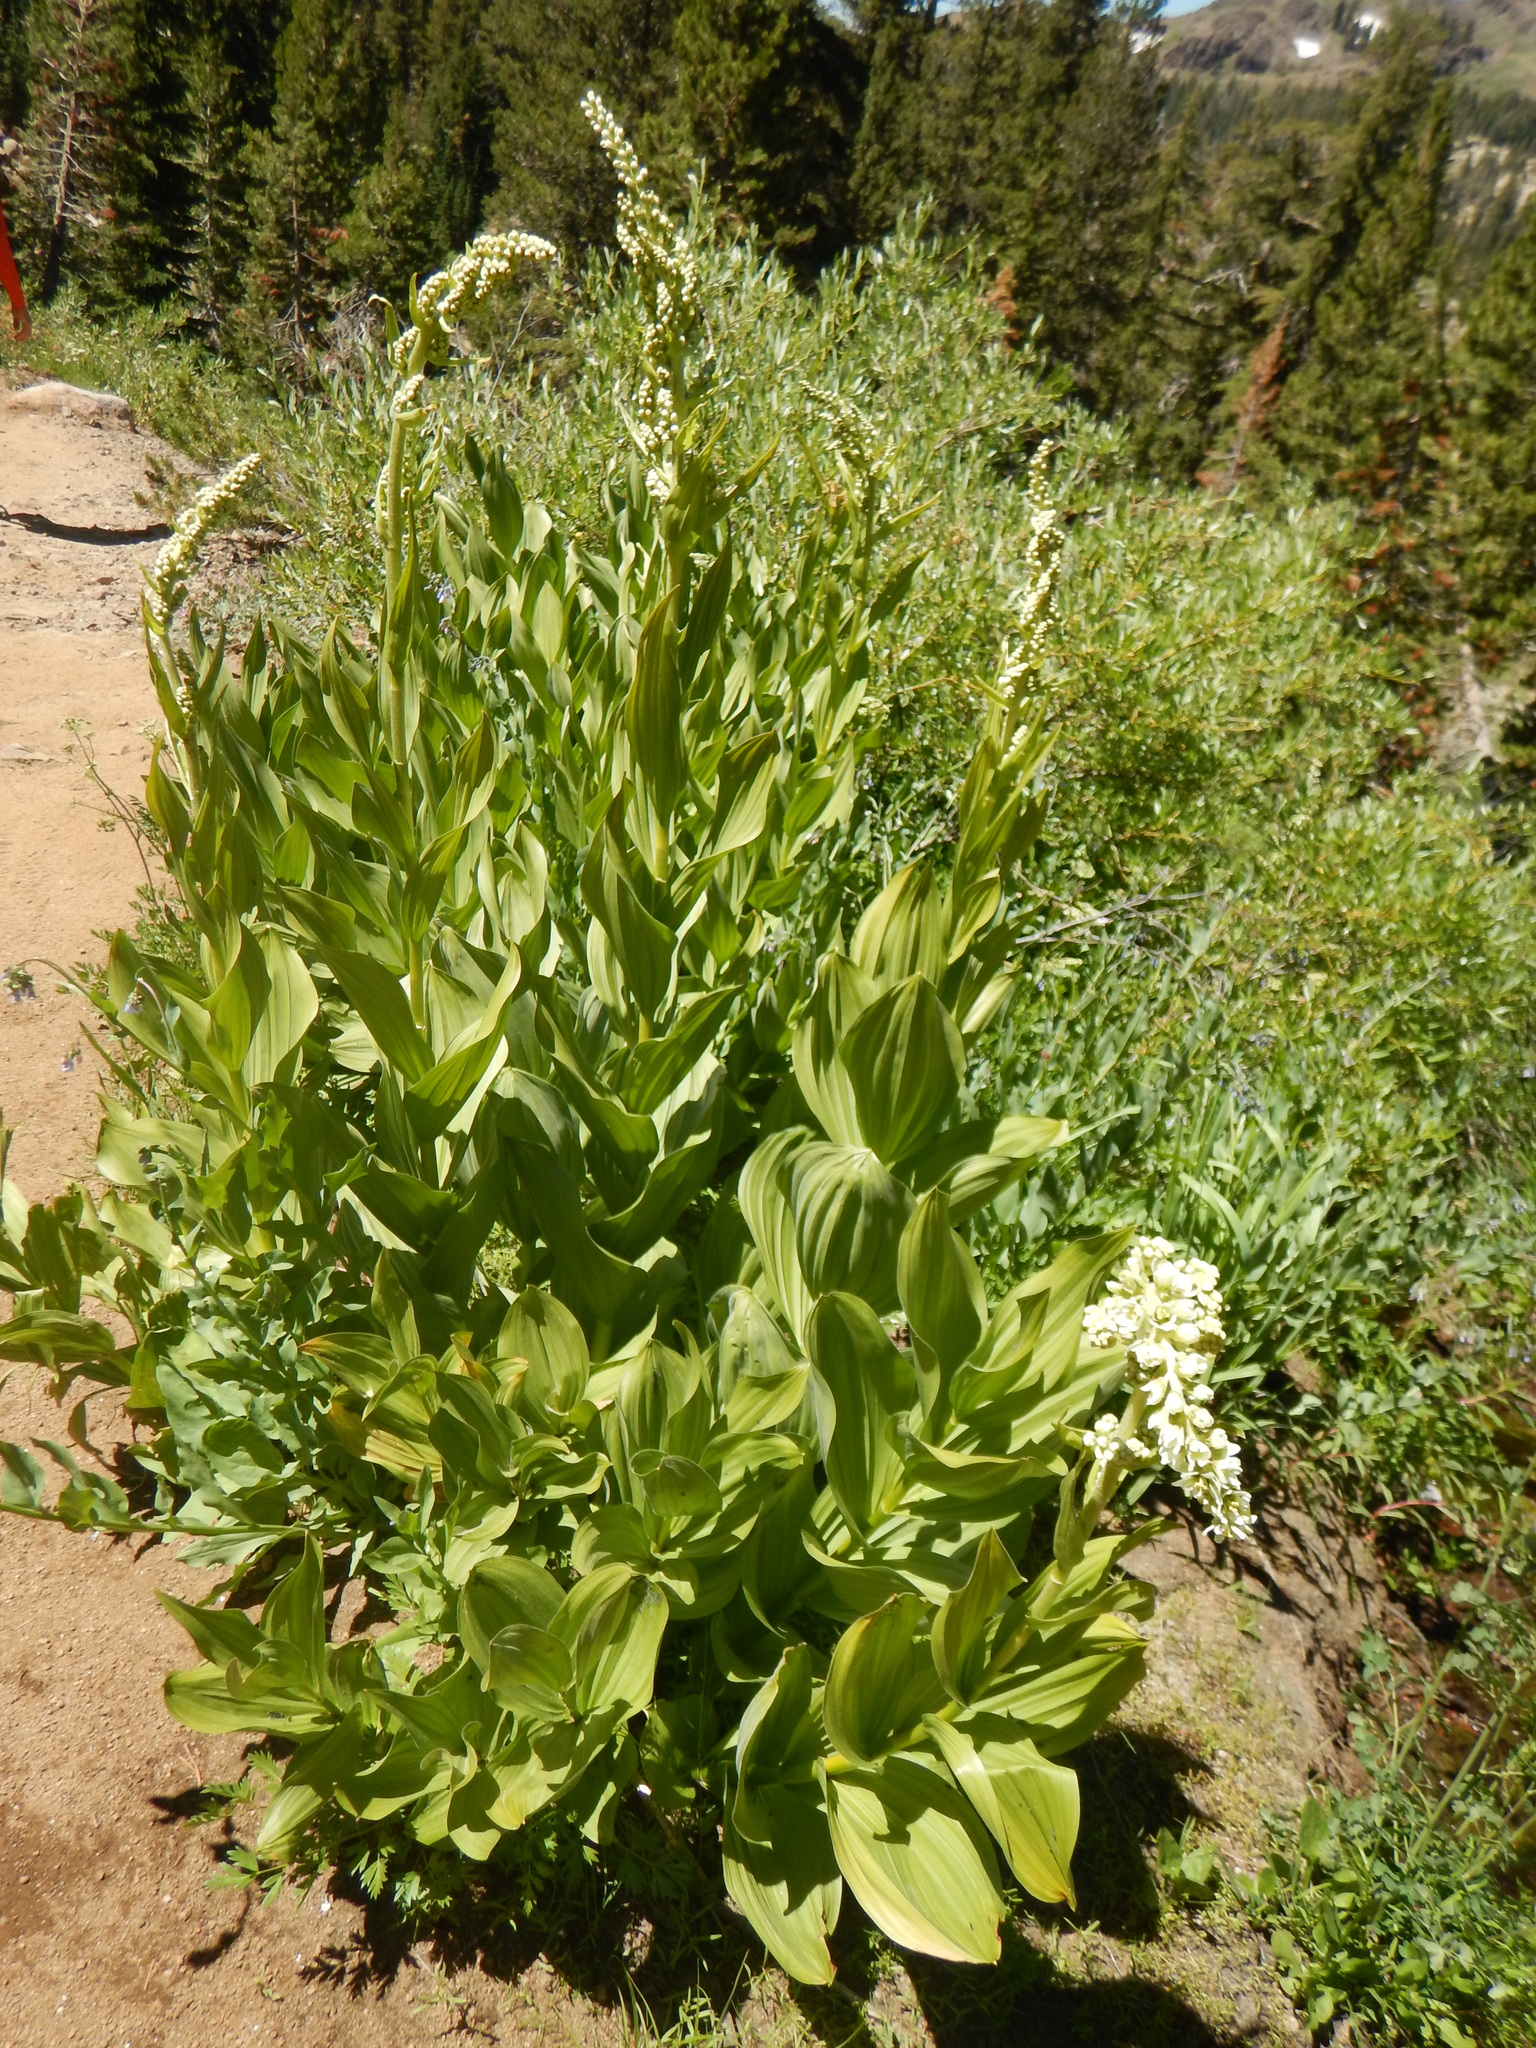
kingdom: Plantae
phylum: Tracheophyta
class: Liliopsida
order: Liliales
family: Melanthiaceae
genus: Veratrum
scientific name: Veratrum californicum
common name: California veratrum
